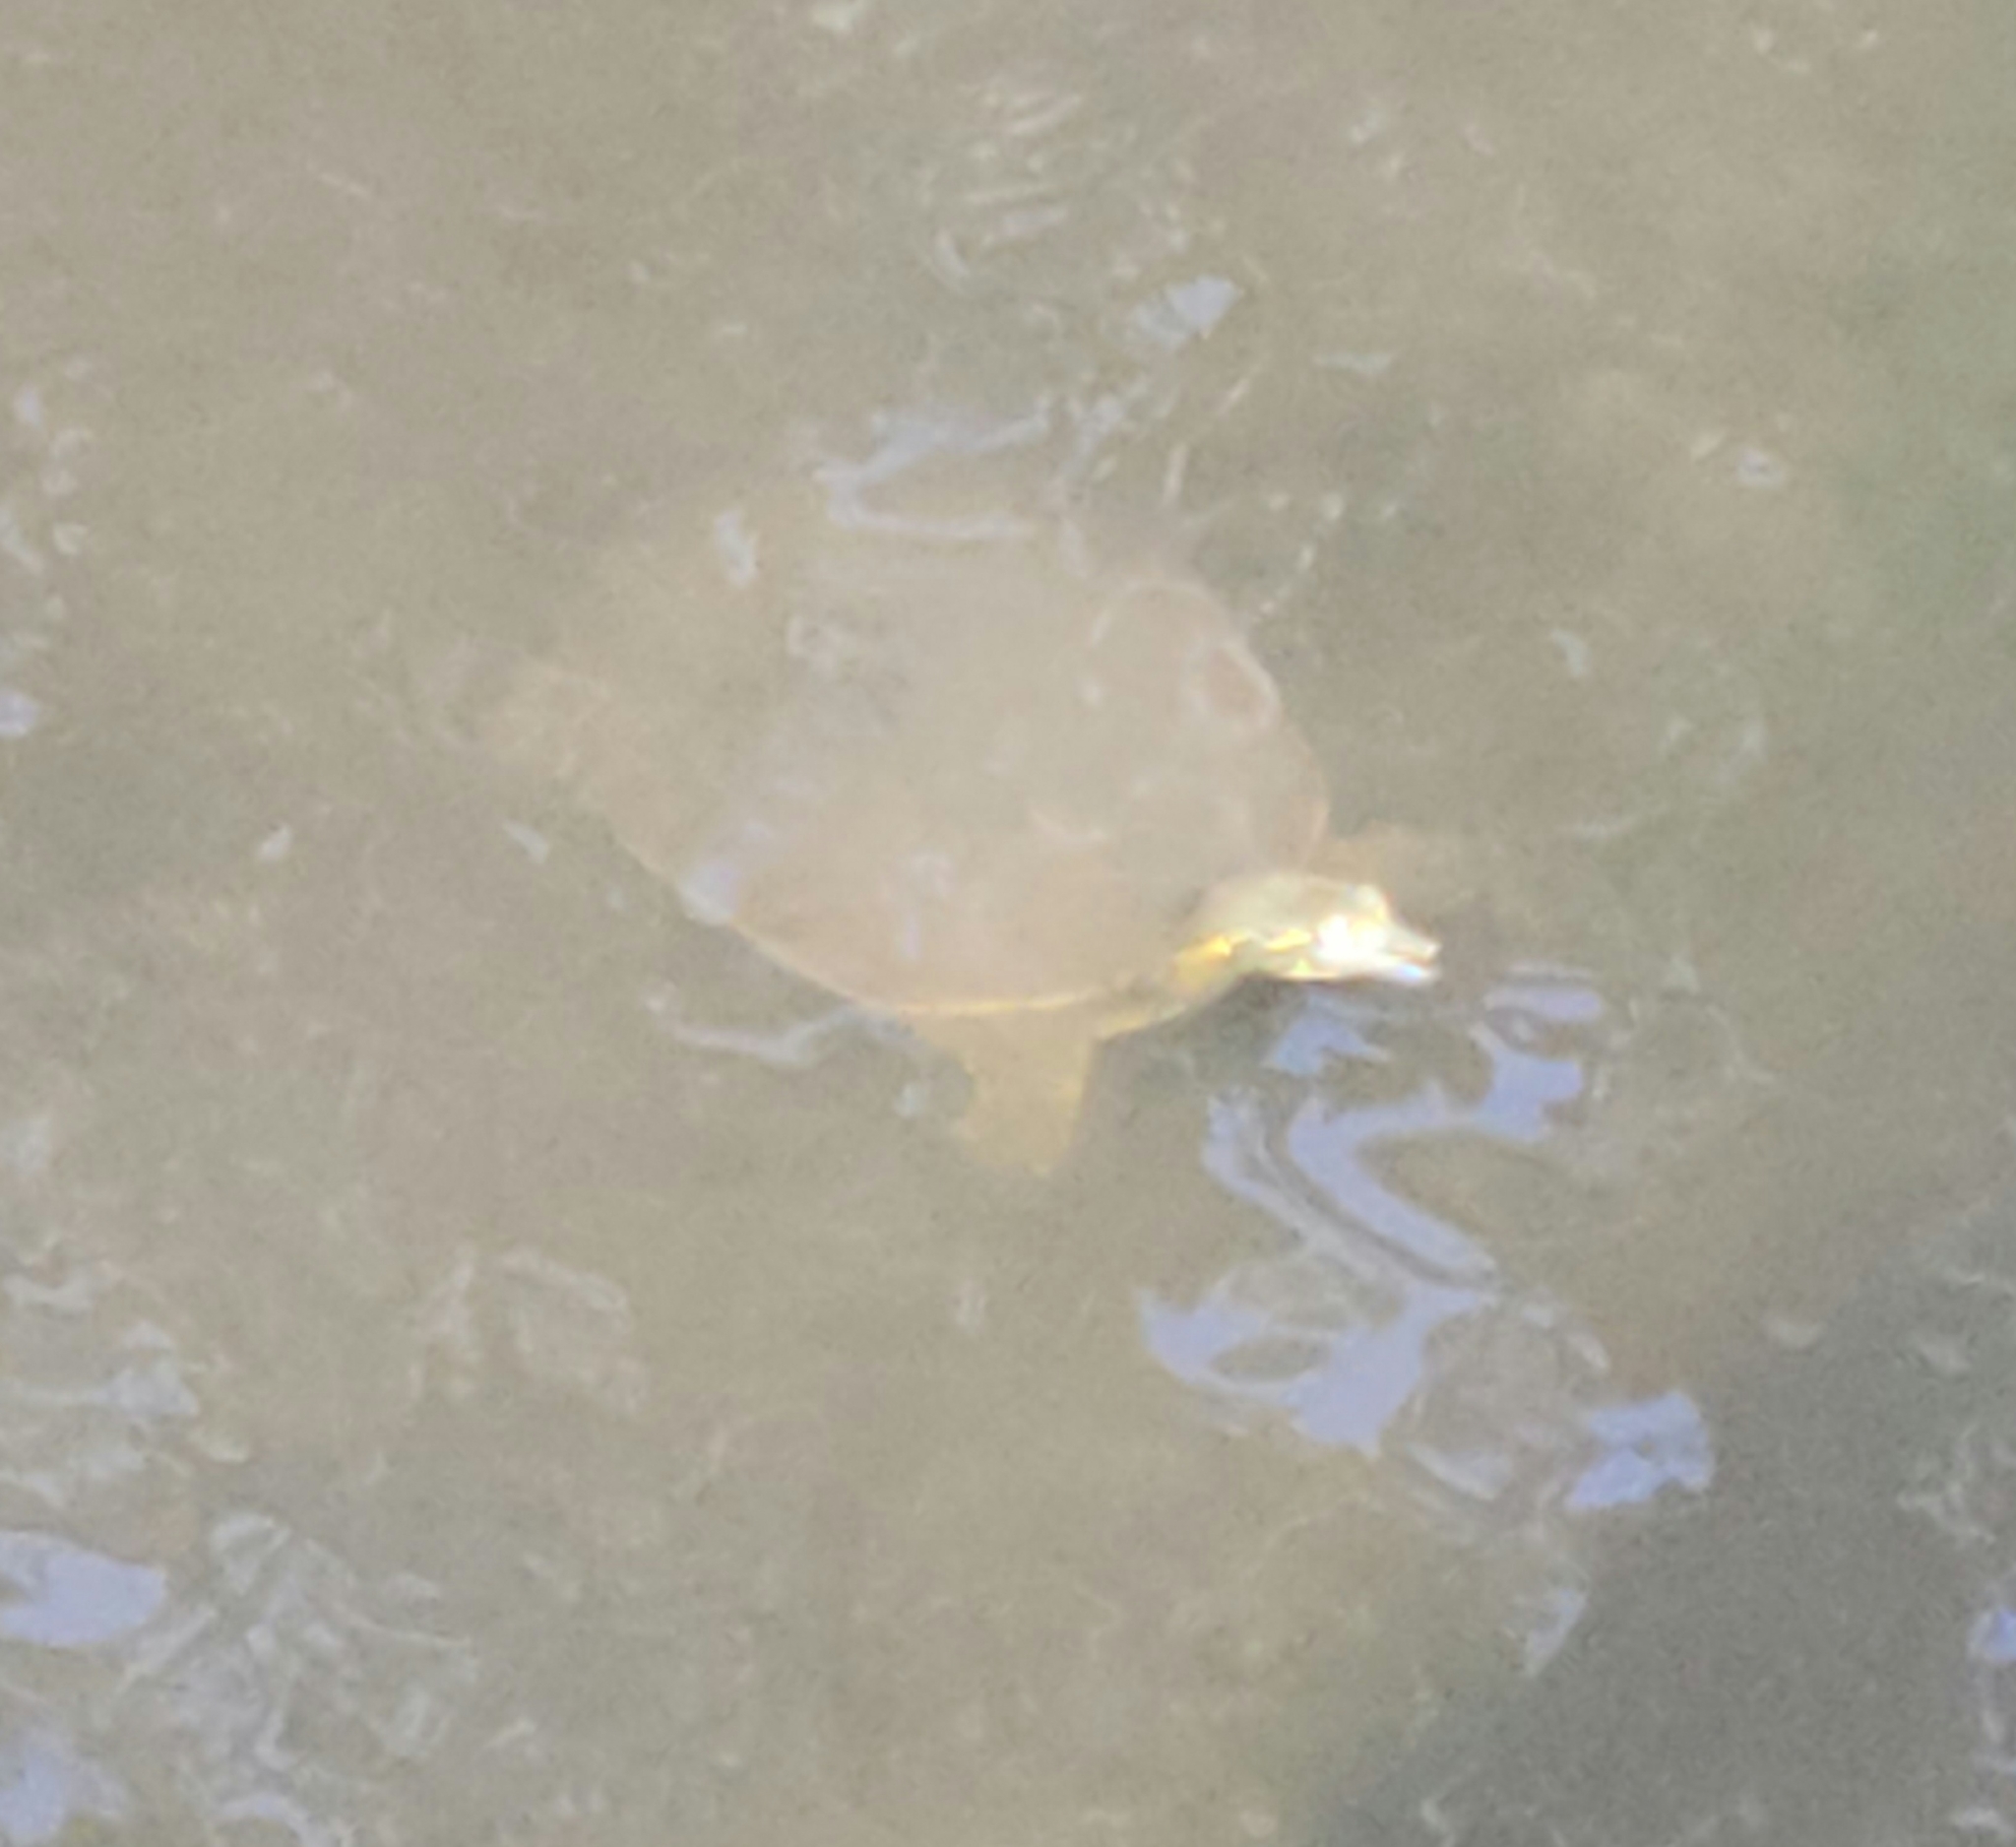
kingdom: Animalia
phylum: Chordata
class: Testudines
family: Trionychidae
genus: Apalone
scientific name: Apalone spinifera
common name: Spiny softshell turtle
